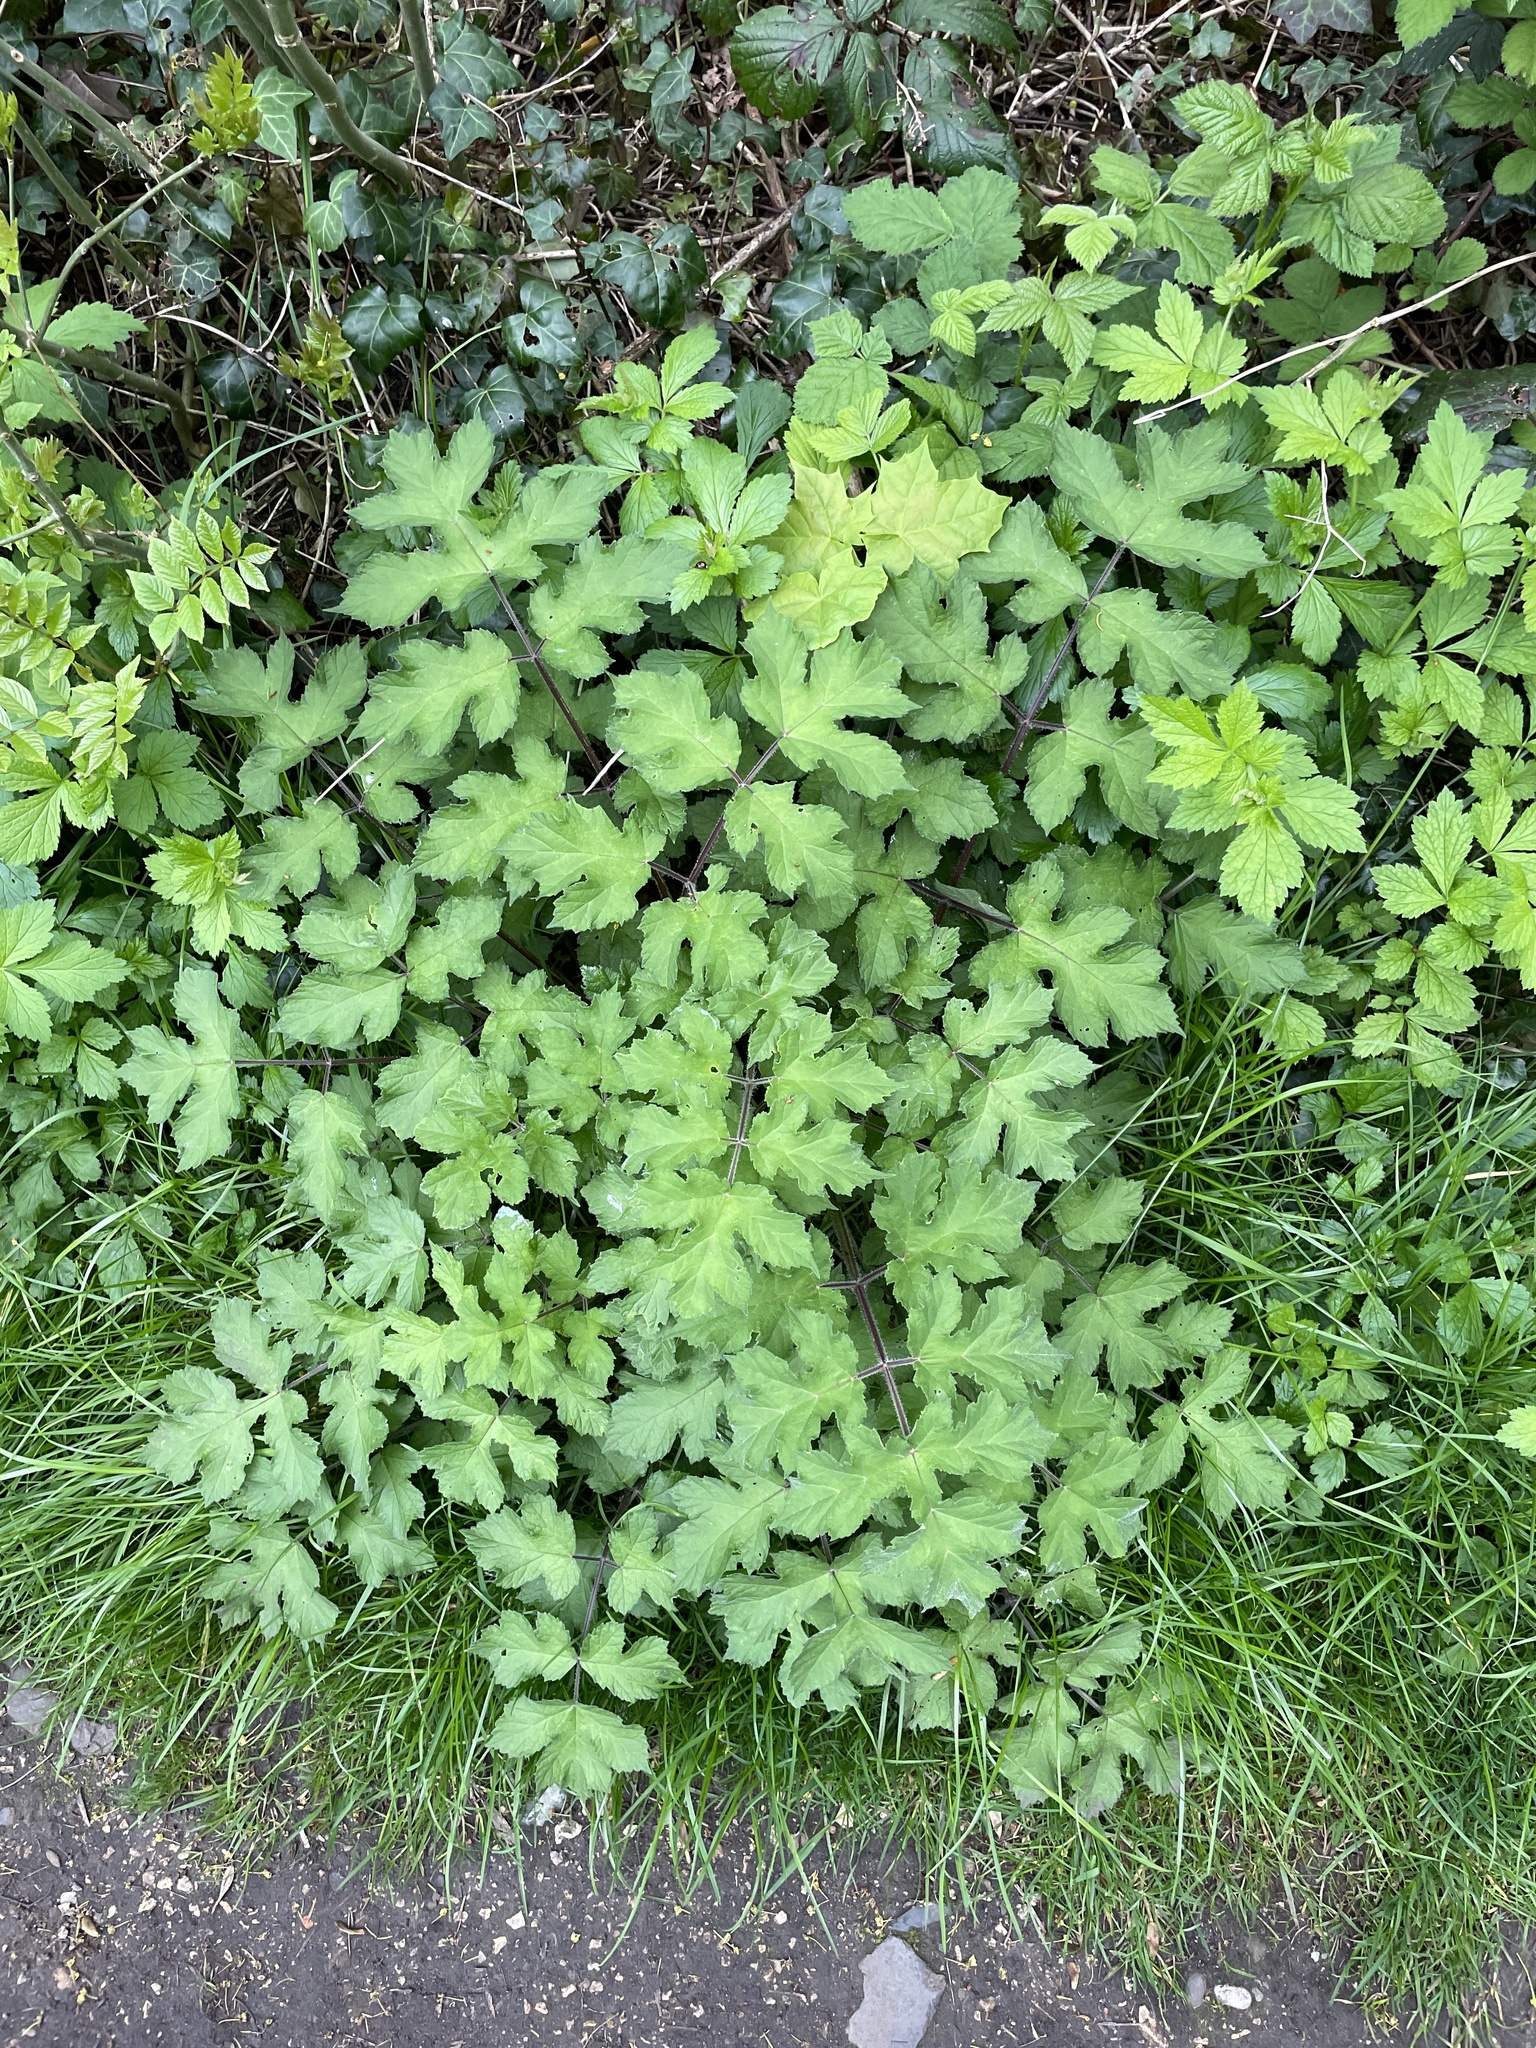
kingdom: Plantae
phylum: Tracheophyta
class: Magnoliopsida
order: Apiales
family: Apiaceae
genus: Heracleum
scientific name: Heracleum sphondylium
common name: Hogweed
